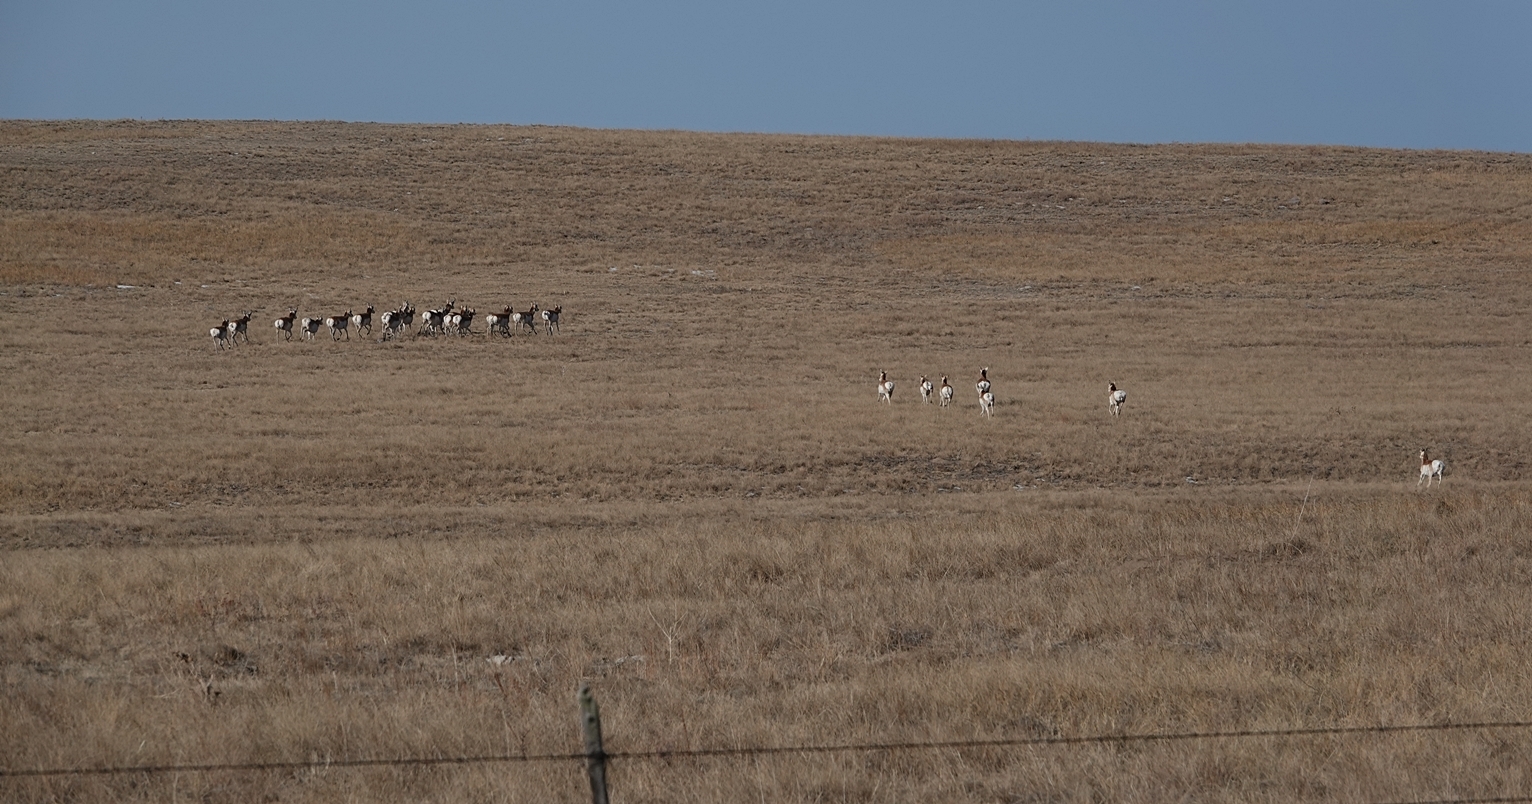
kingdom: Animalia
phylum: Chordata
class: Mammalia
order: Artiodactyla
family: Antilocapridae
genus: Antilocapra
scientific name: Antilocapra americana
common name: Pronghorn
